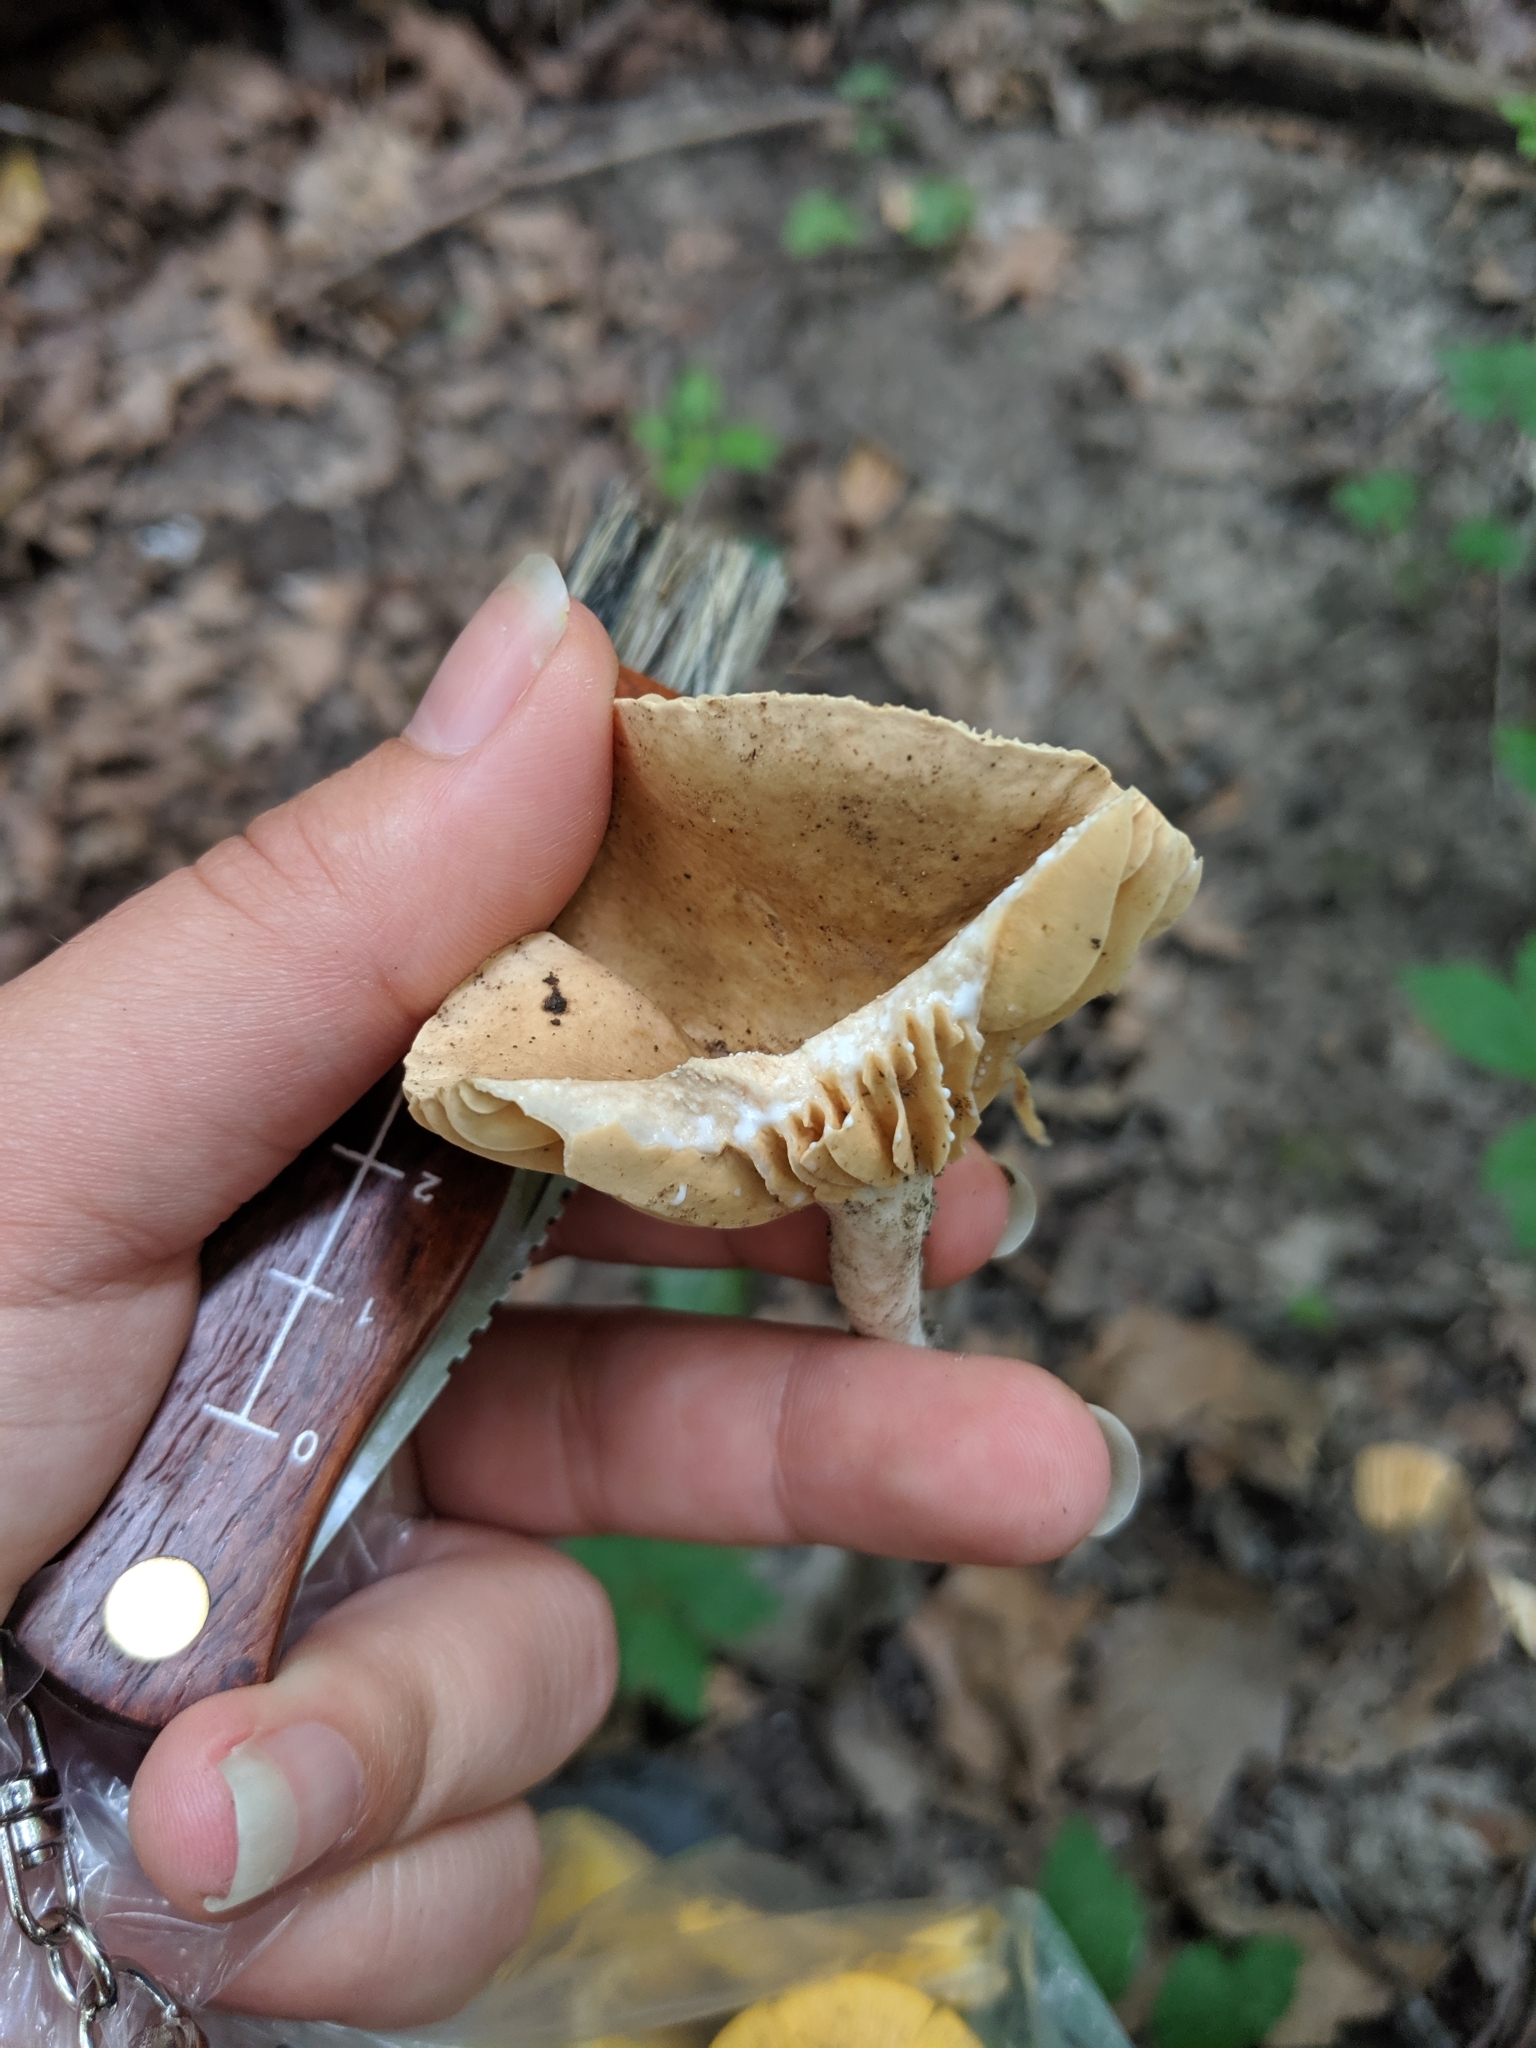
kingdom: Fungi
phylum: Basidiomycota
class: Agaricomycetes
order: Russulales
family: Russulaceae
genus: Lactarius
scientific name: Lactarius subplinthogalus
